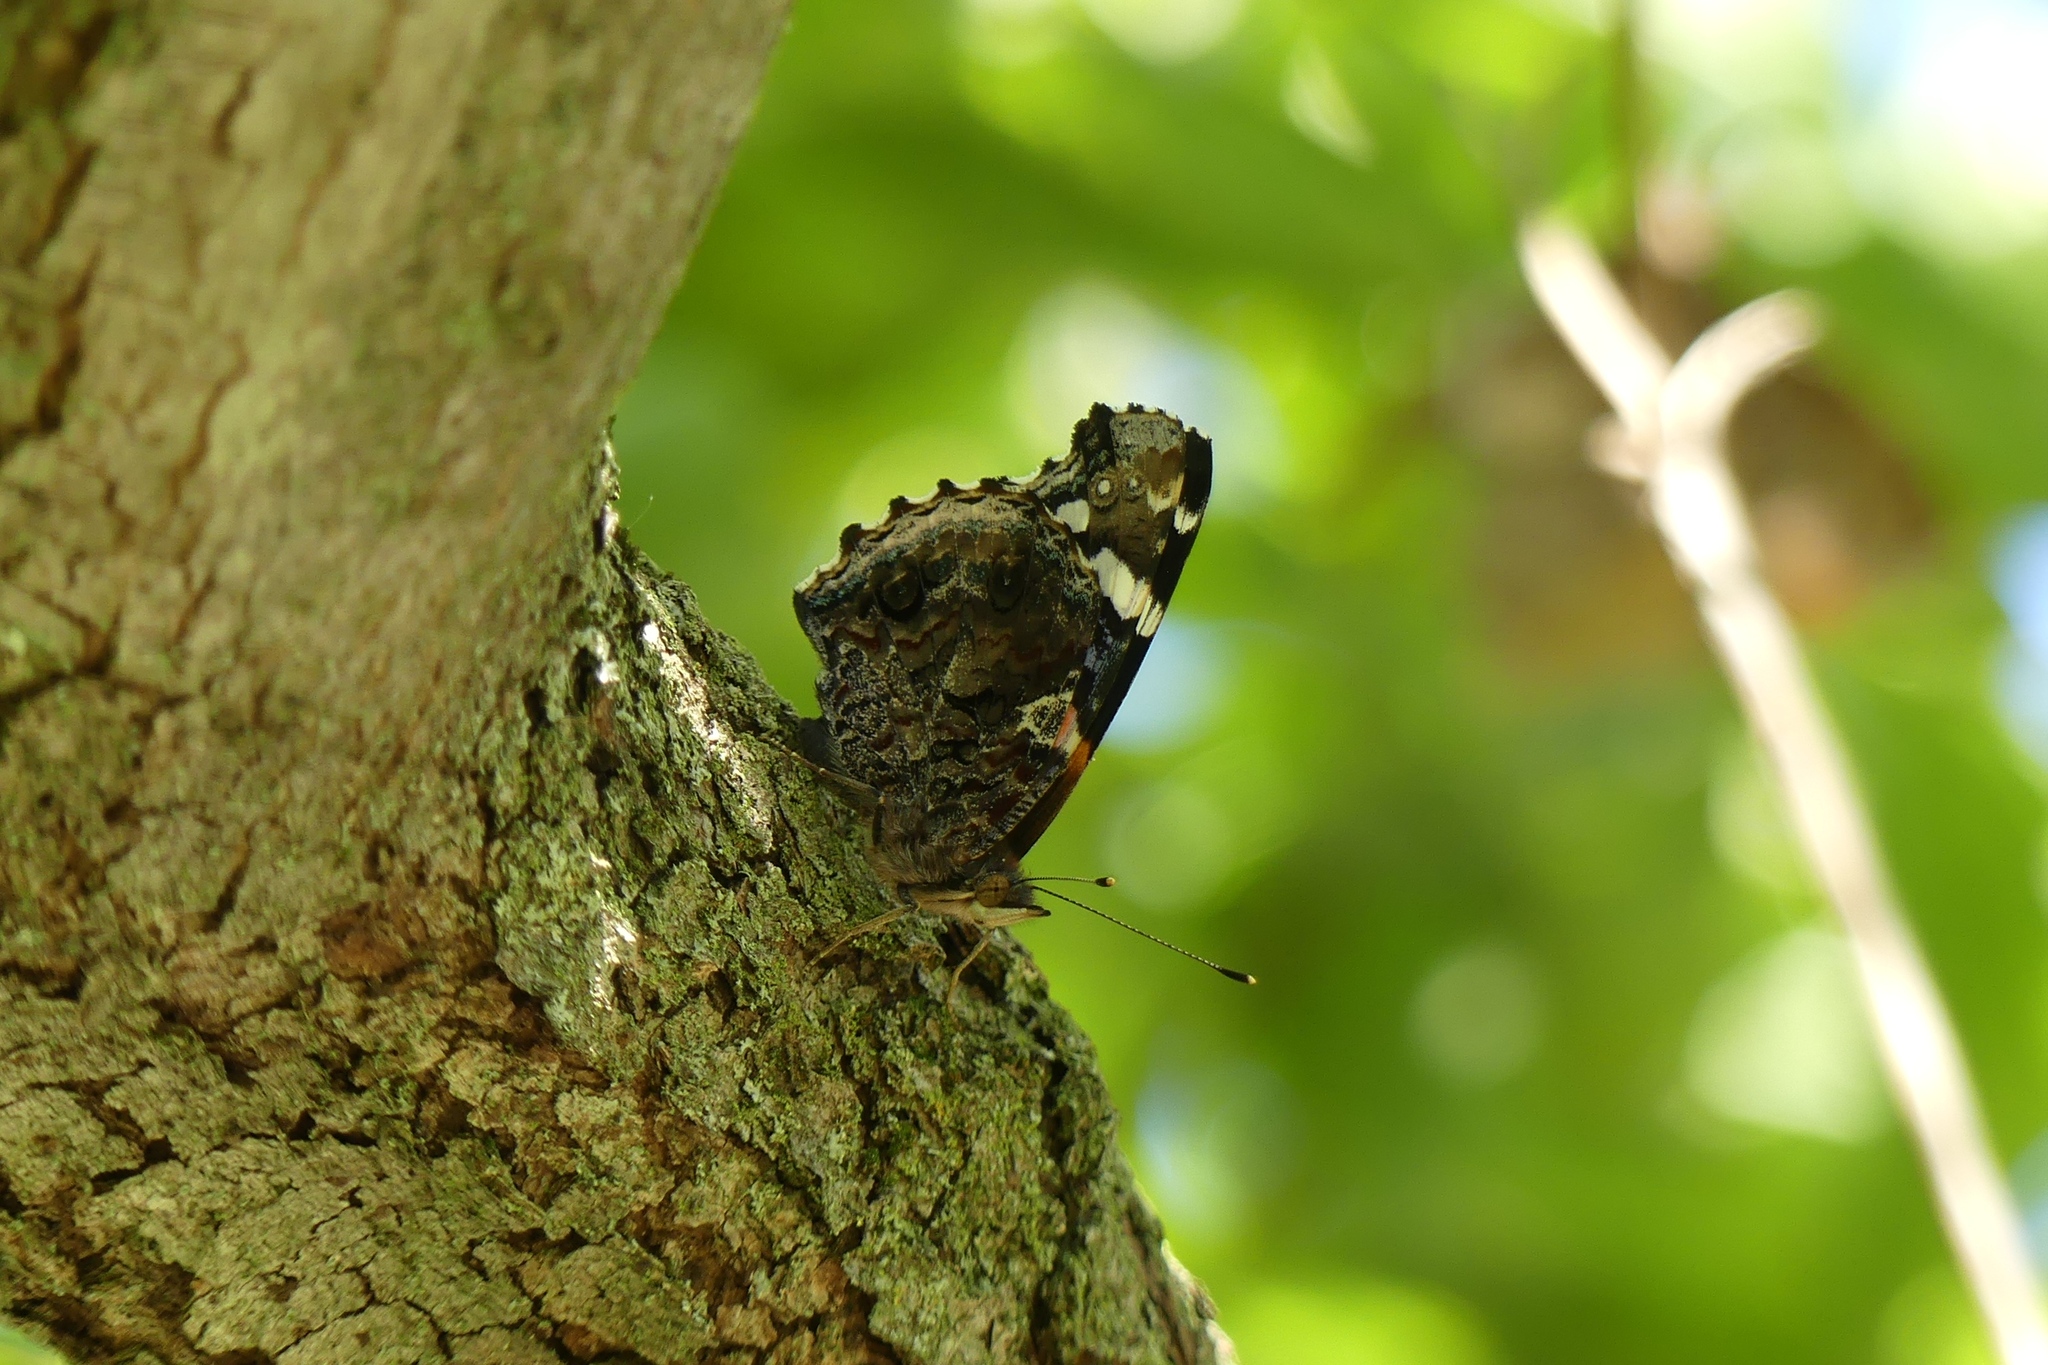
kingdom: Animalia
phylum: Arthropoda
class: Insecta
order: Lepidoptera
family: Nymphalidae
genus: Vanessa
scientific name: Vanessa atalanta
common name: Red admiral
